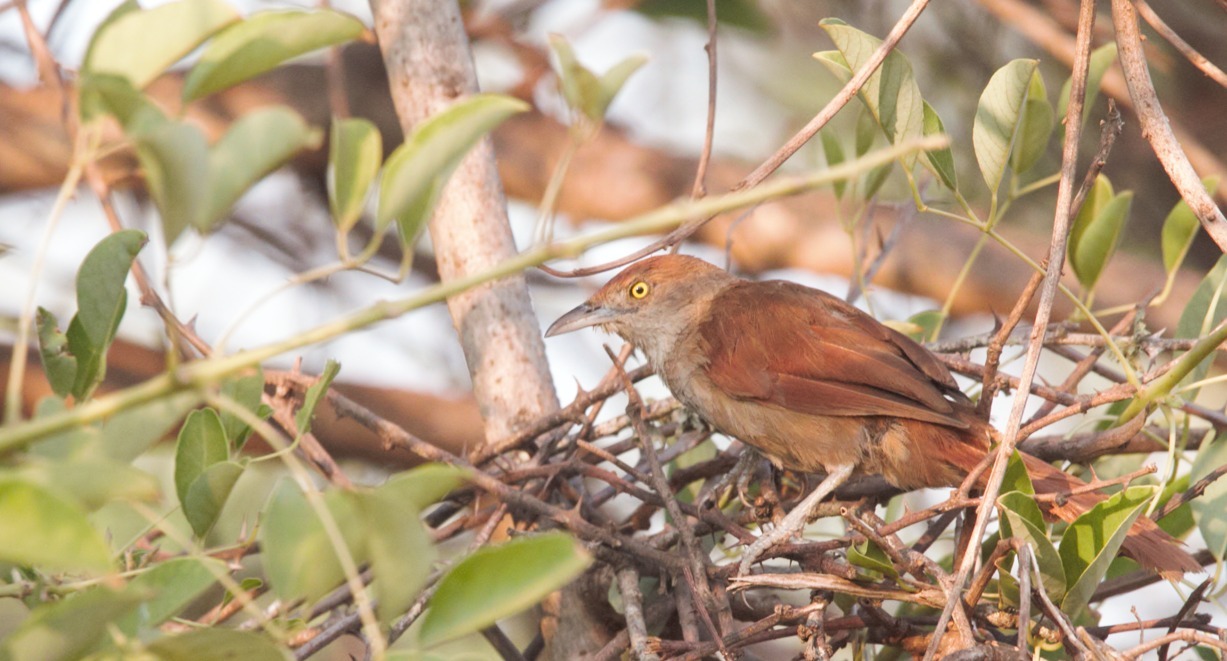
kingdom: Animalia
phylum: Chordata
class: Aves
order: Passeriformes
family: Furnariidae
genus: Phacellodomus
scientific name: Phacellodomus ruber
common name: Greater thornbird
